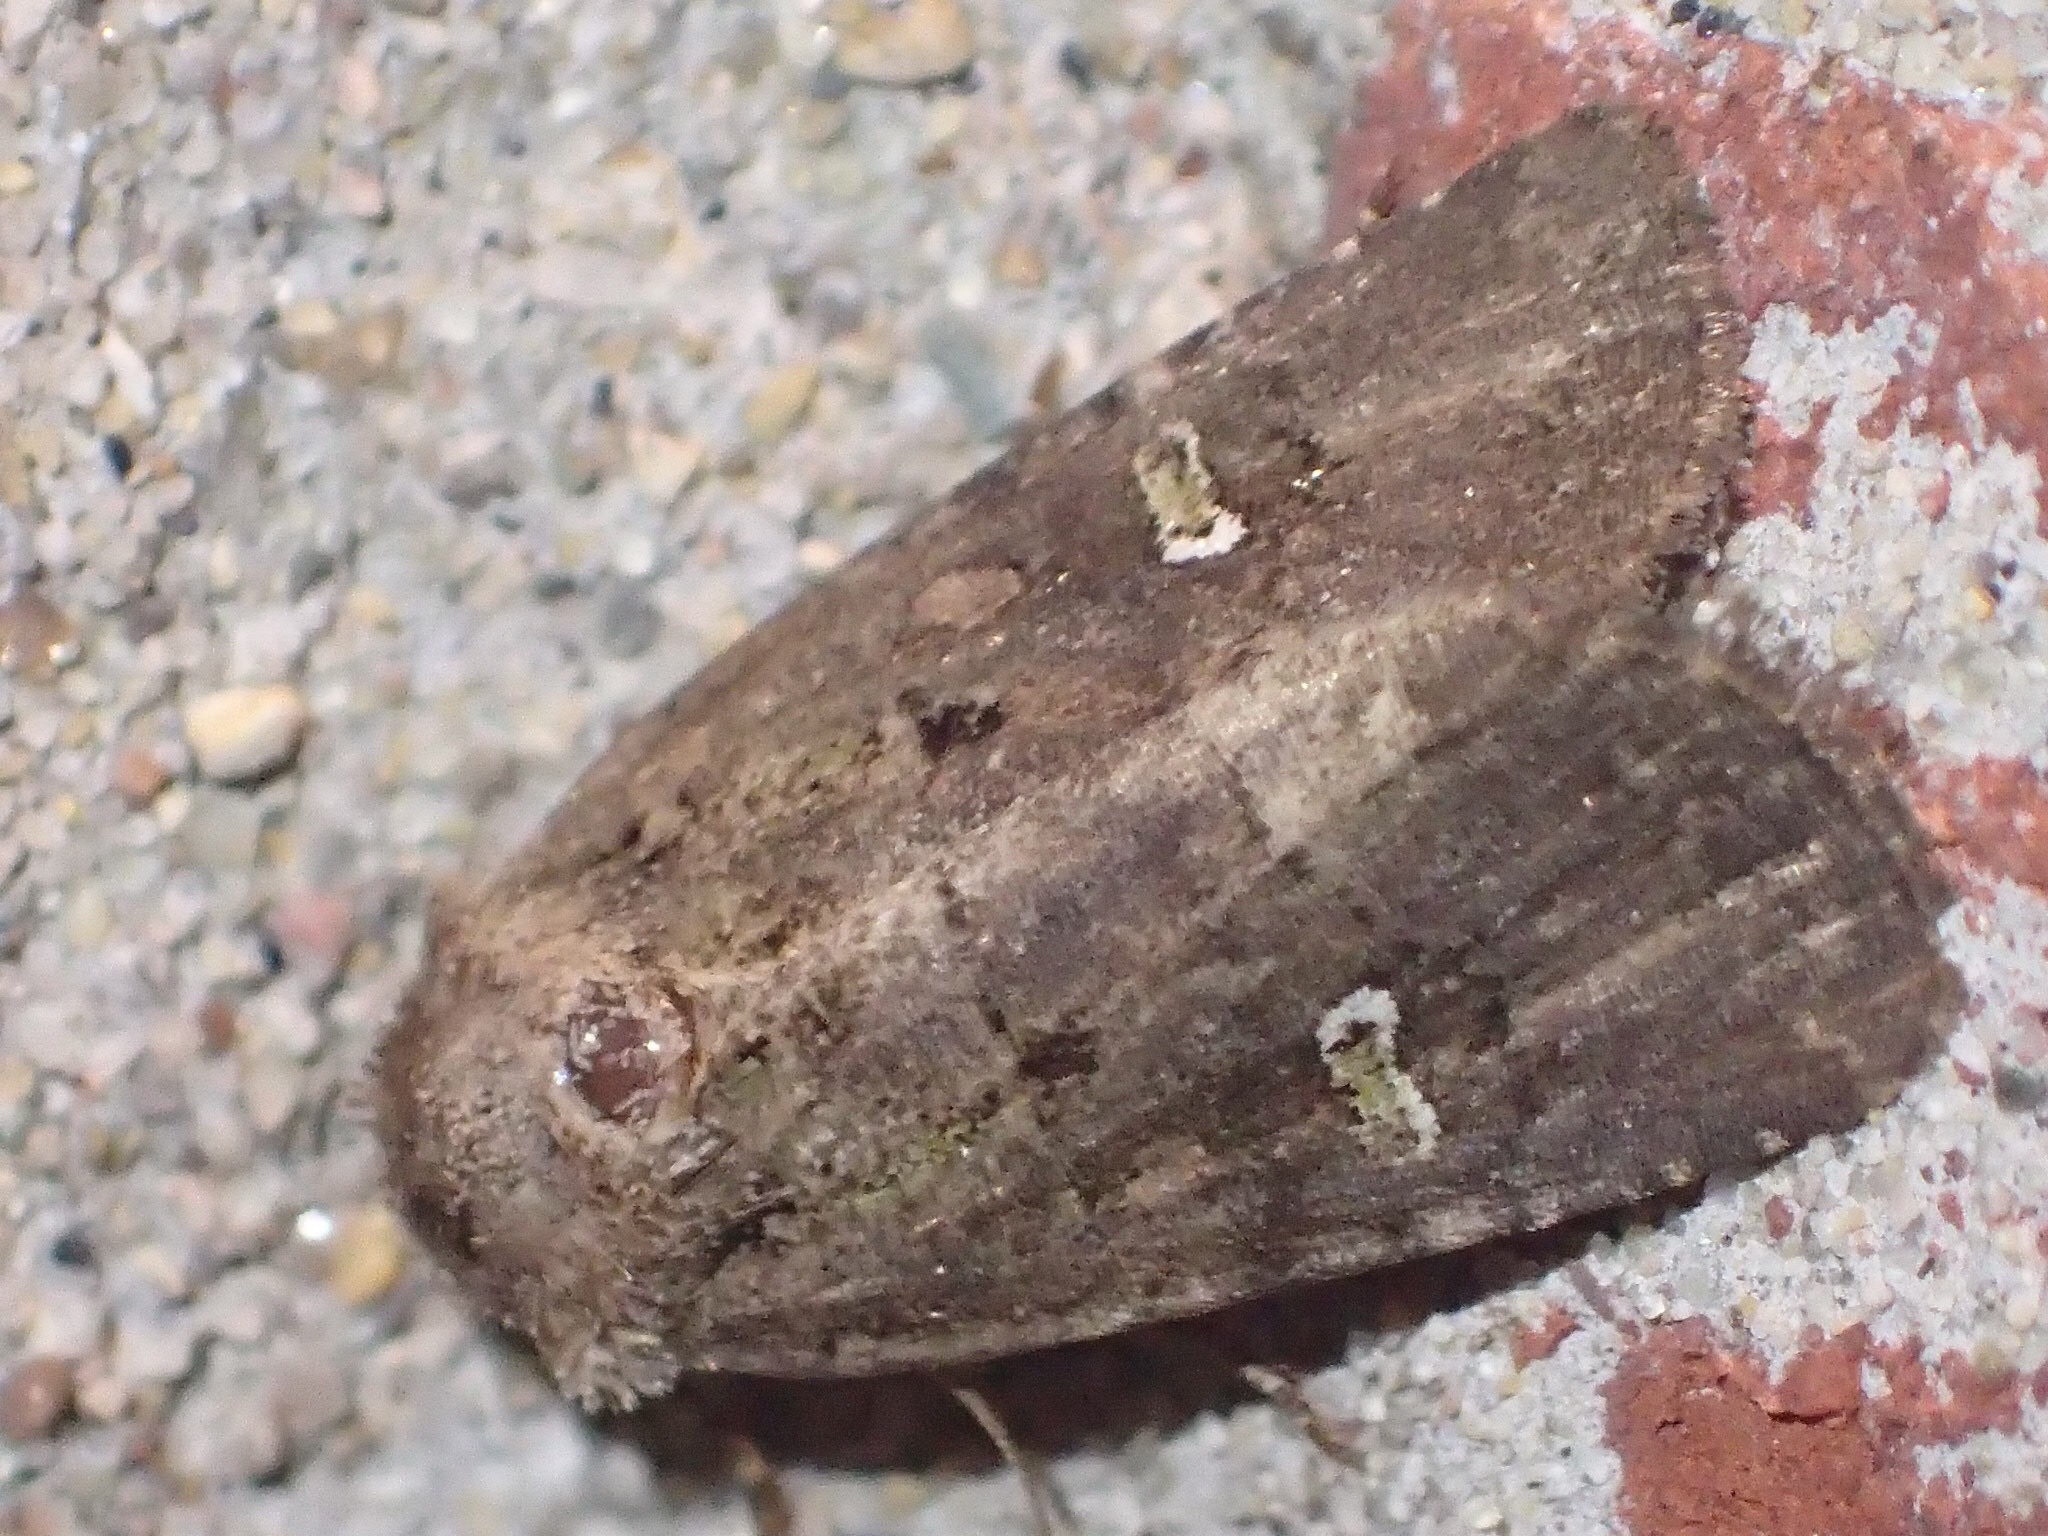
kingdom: Animalia
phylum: Arthropoda
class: Insecta
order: Lepidoptera
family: Noctuidae
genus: Lacinipolia
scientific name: Lacinipolia renigera
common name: Kidney-spotted minor
